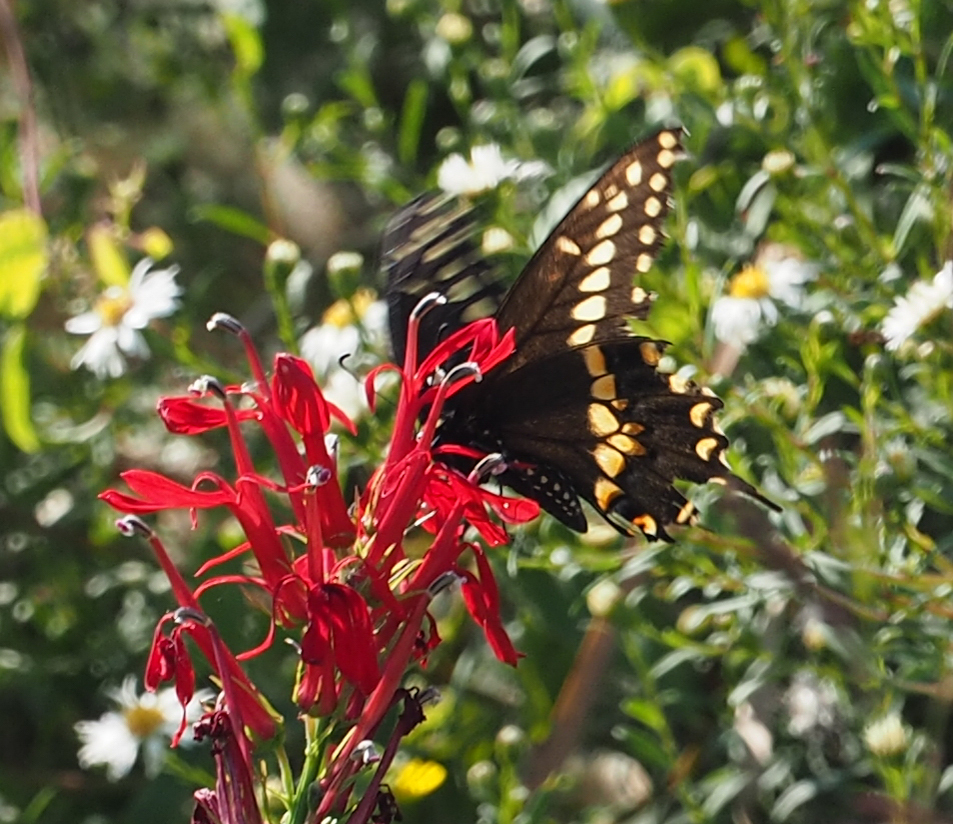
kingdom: Animalia
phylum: Arthropoda
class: Insecta
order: Lepidoptera
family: Papilionidae
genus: Papilio
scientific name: Papilio polyxenes
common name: Black swallowtail
